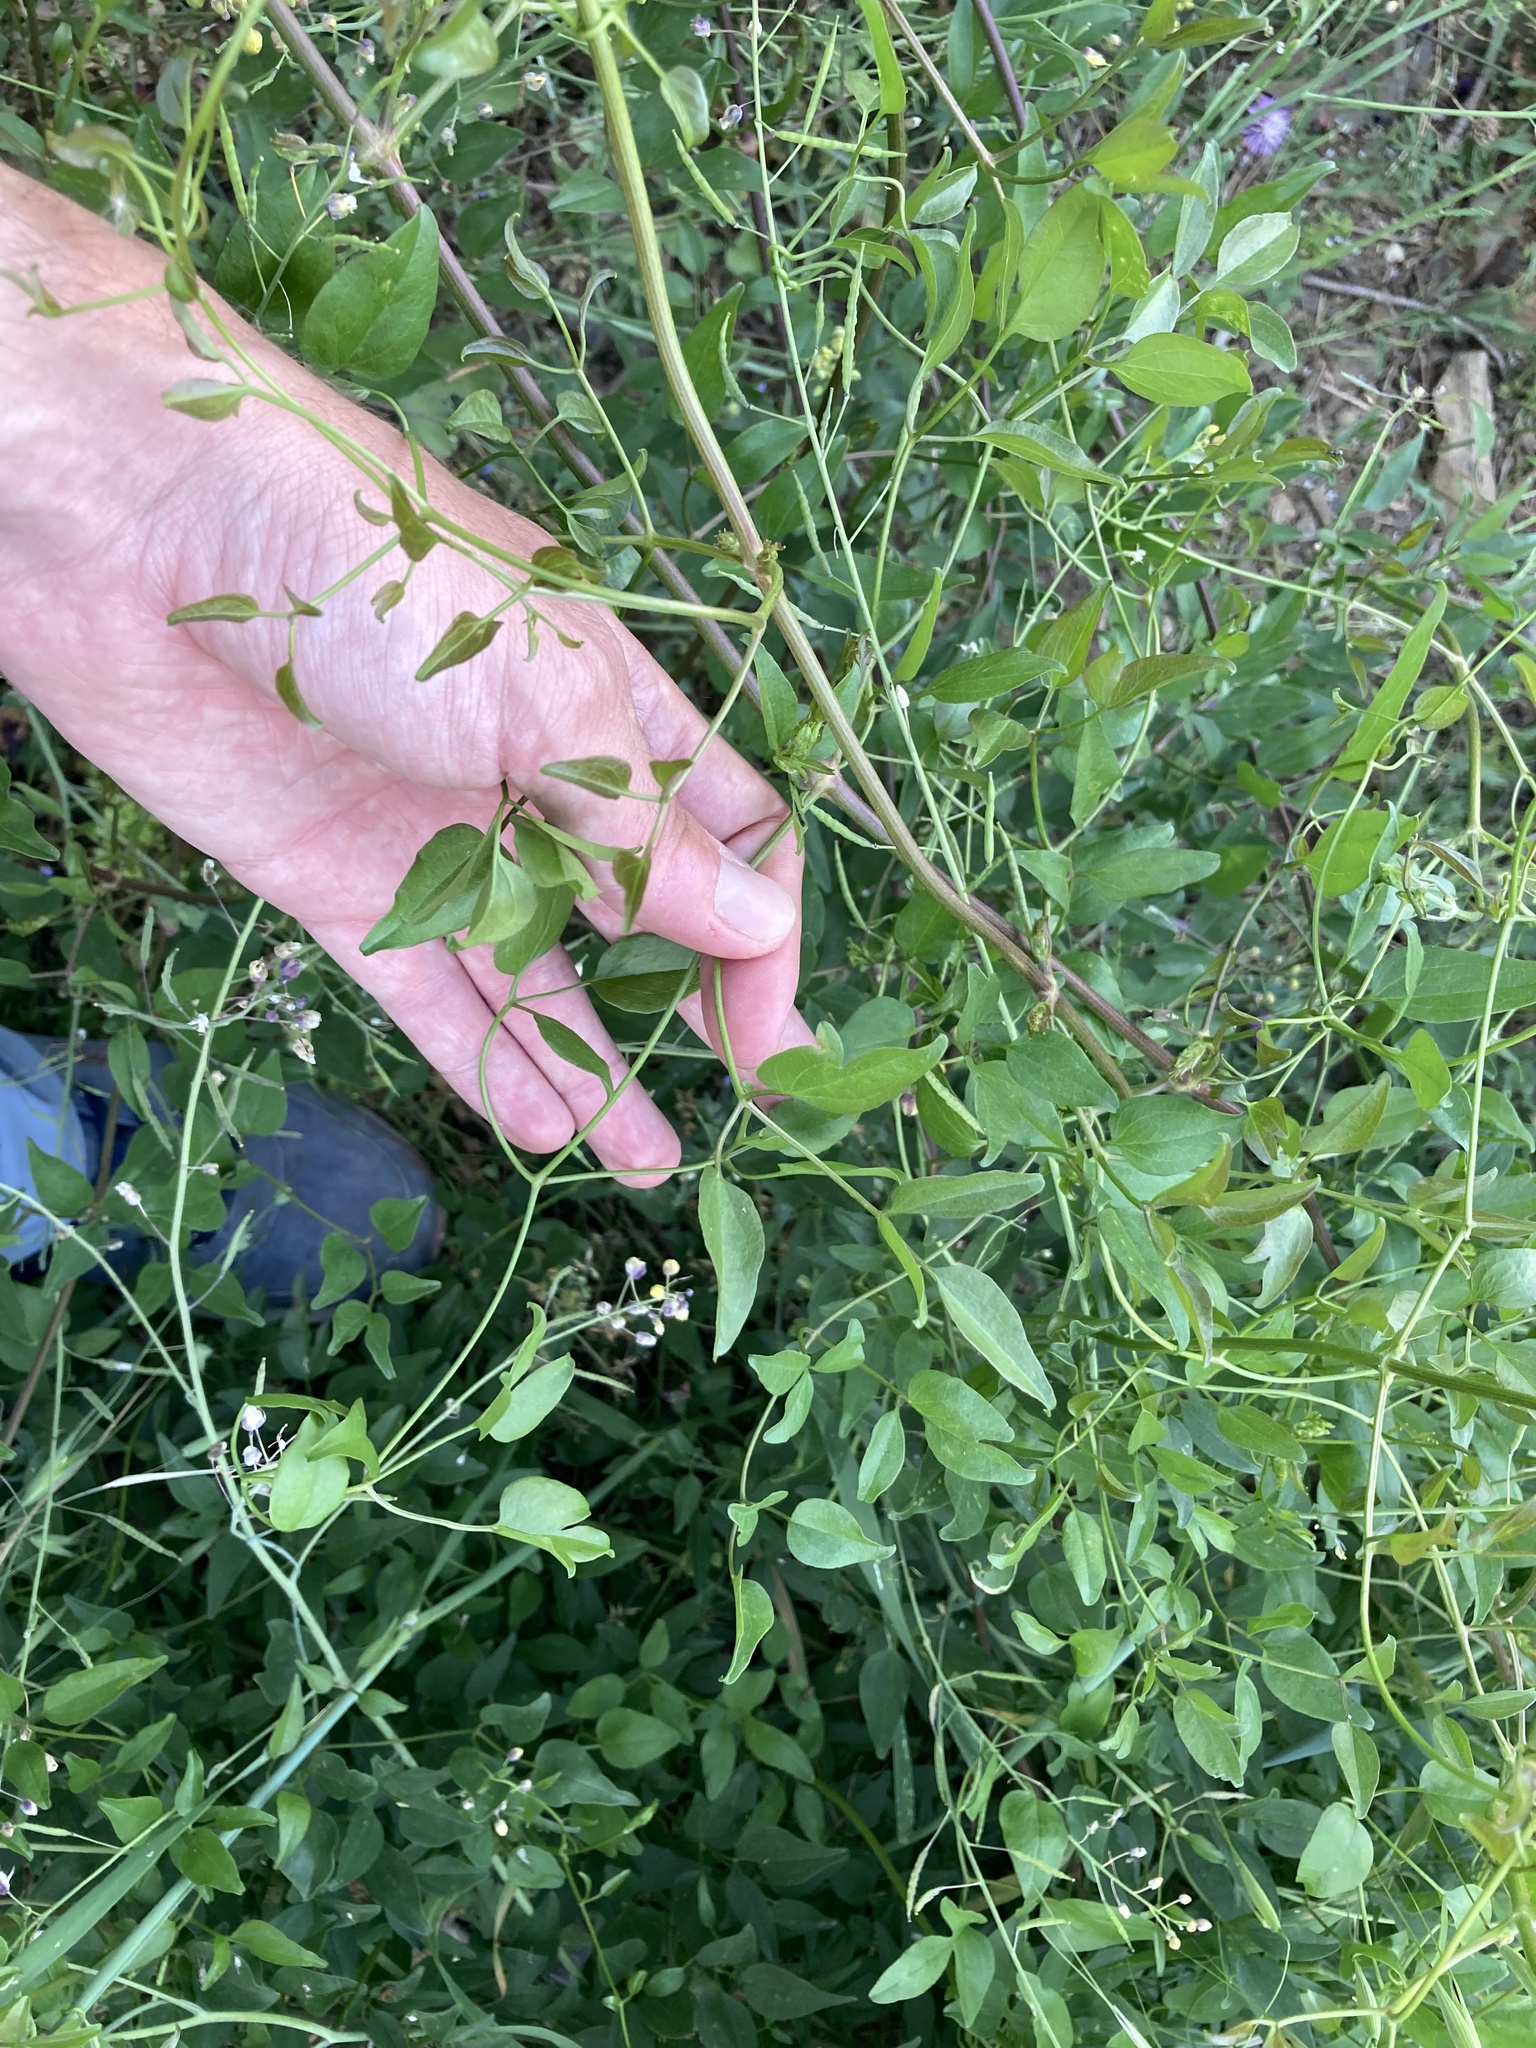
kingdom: Plantae
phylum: Tracheophyta
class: Magnoliopsida
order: Ranunculales
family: Ranunculaceae
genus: Clematis
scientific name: Clematis flammula
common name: Virgin's-bower
